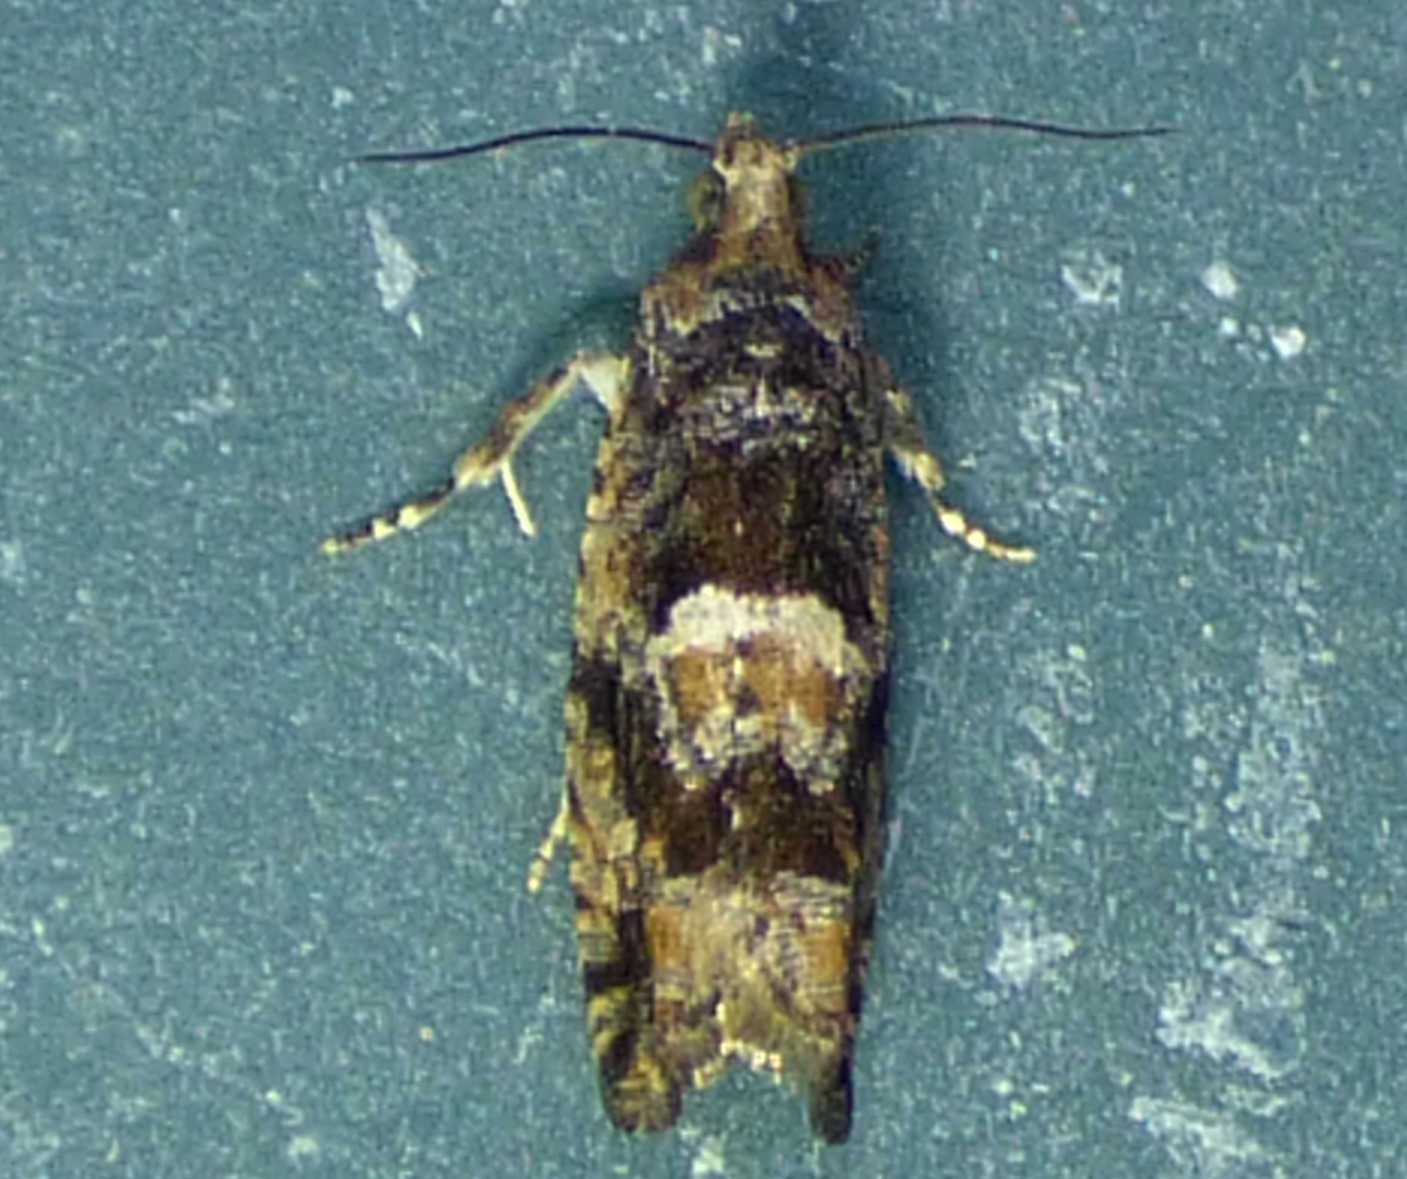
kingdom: Animalia
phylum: Arthropoda
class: Insecta
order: Lepidoptera
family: Tortricidae
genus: Chimoptesis
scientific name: Chimoptesis gerulae
